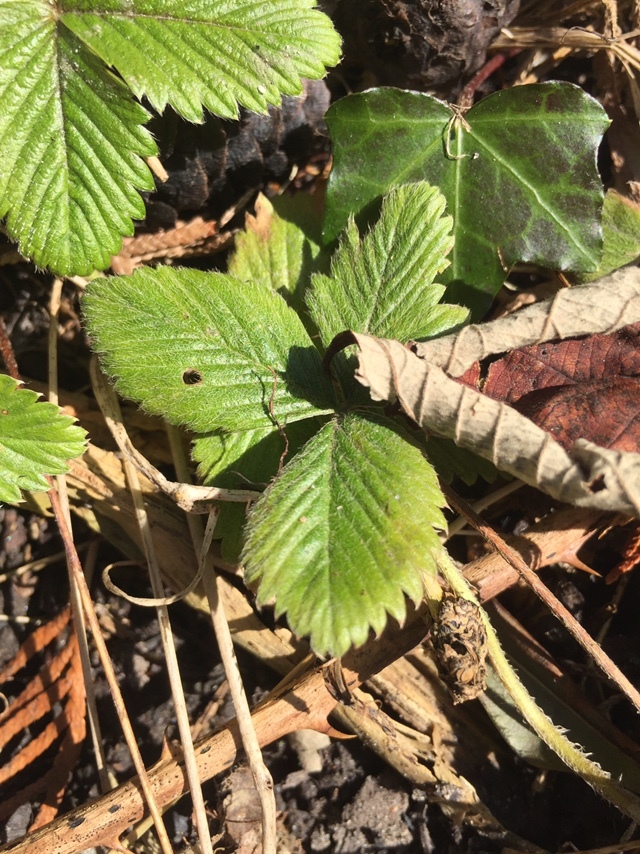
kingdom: Plantae
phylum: Tracheophyta
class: Magnoliopsida
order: Rosales
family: Rosaceae
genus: Fragaria
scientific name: Fragaria vesca
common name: Wild strawberry
